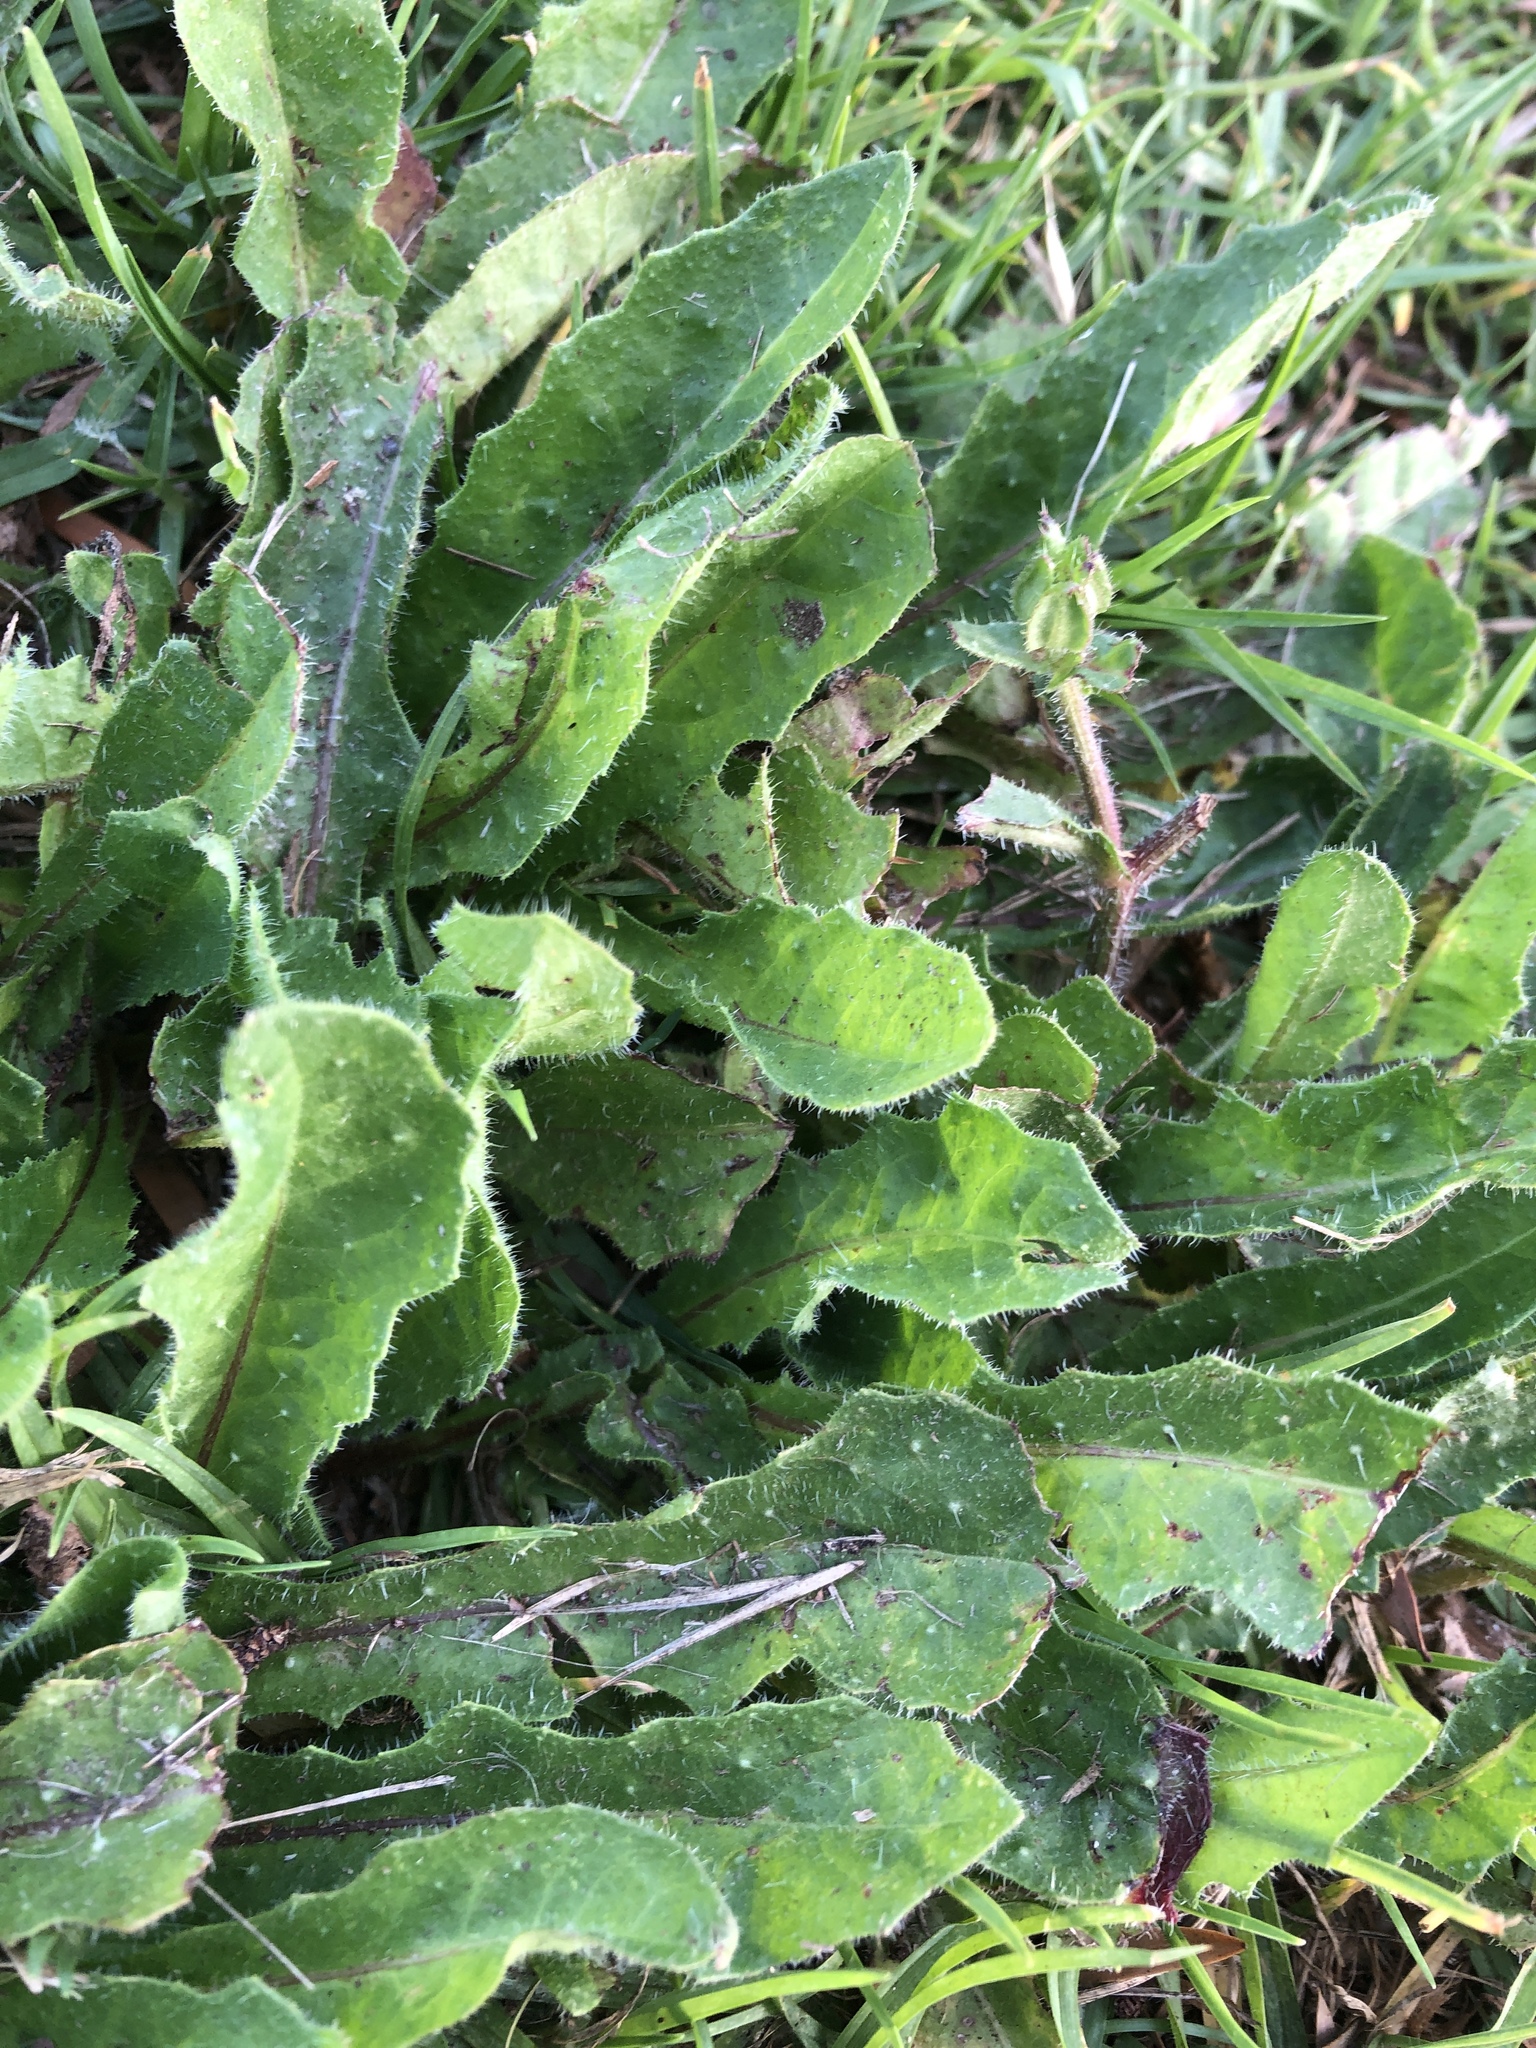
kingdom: Plantae
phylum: Tracheophyta
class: Magnoliopsida
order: Asterales
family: Asteraceae
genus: Helminthotheca
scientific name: Helminthotheca echioides
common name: Ox-tongue
